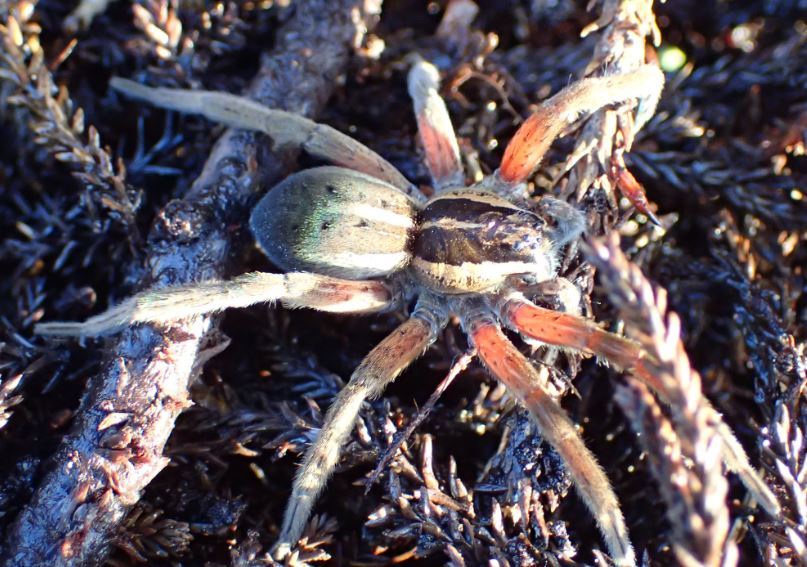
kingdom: Animalia
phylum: Arthropoda
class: Arachnida
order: Araneae
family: Pisauridae
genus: Dolomedes
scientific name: Dolomedes minor
